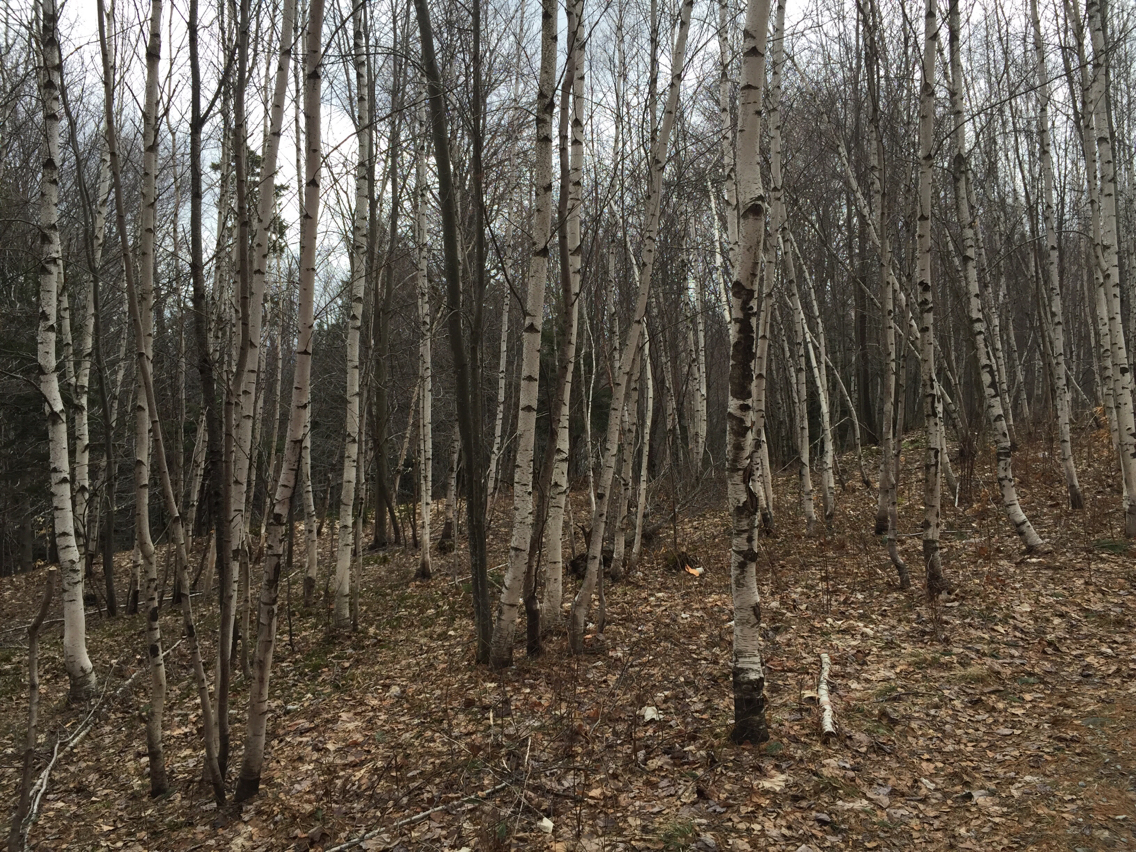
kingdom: Plantae
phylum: Tracheophyta
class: Magnoliopsida
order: Fagales
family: Betulaceae
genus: Betula
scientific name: Betula populifolia
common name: Fire birch
